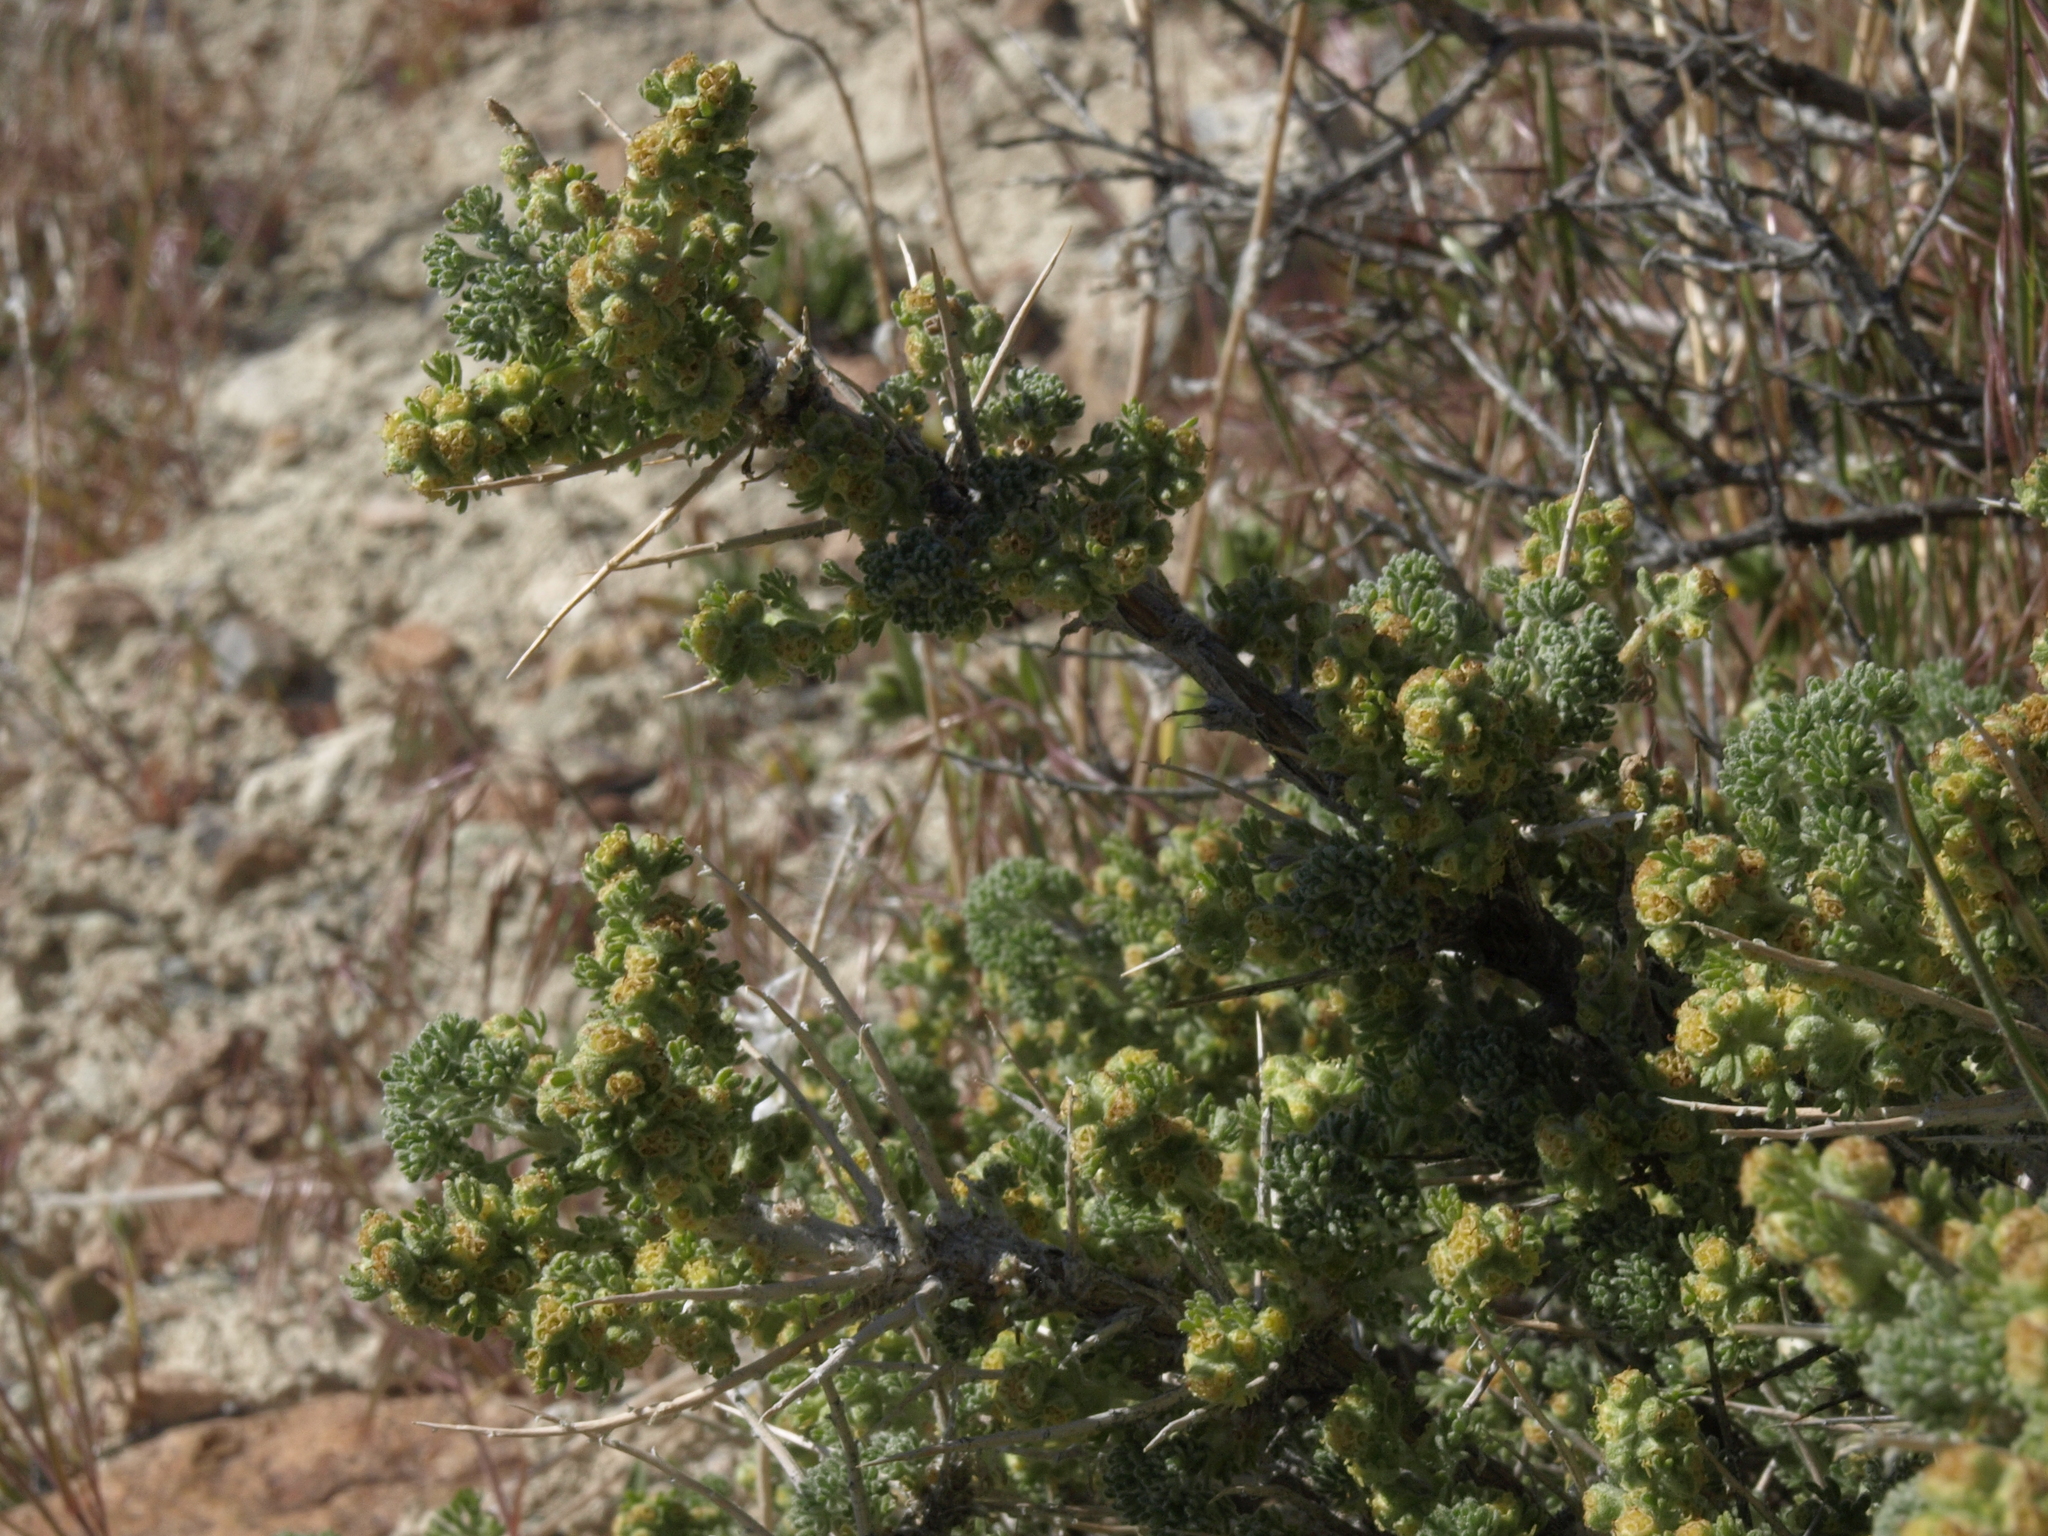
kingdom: Plantae
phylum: Tracheophyta
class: Magnoliopsida
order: Asterales
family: Asteraceae
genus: Artemisia
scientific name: Artemisia spinescens
